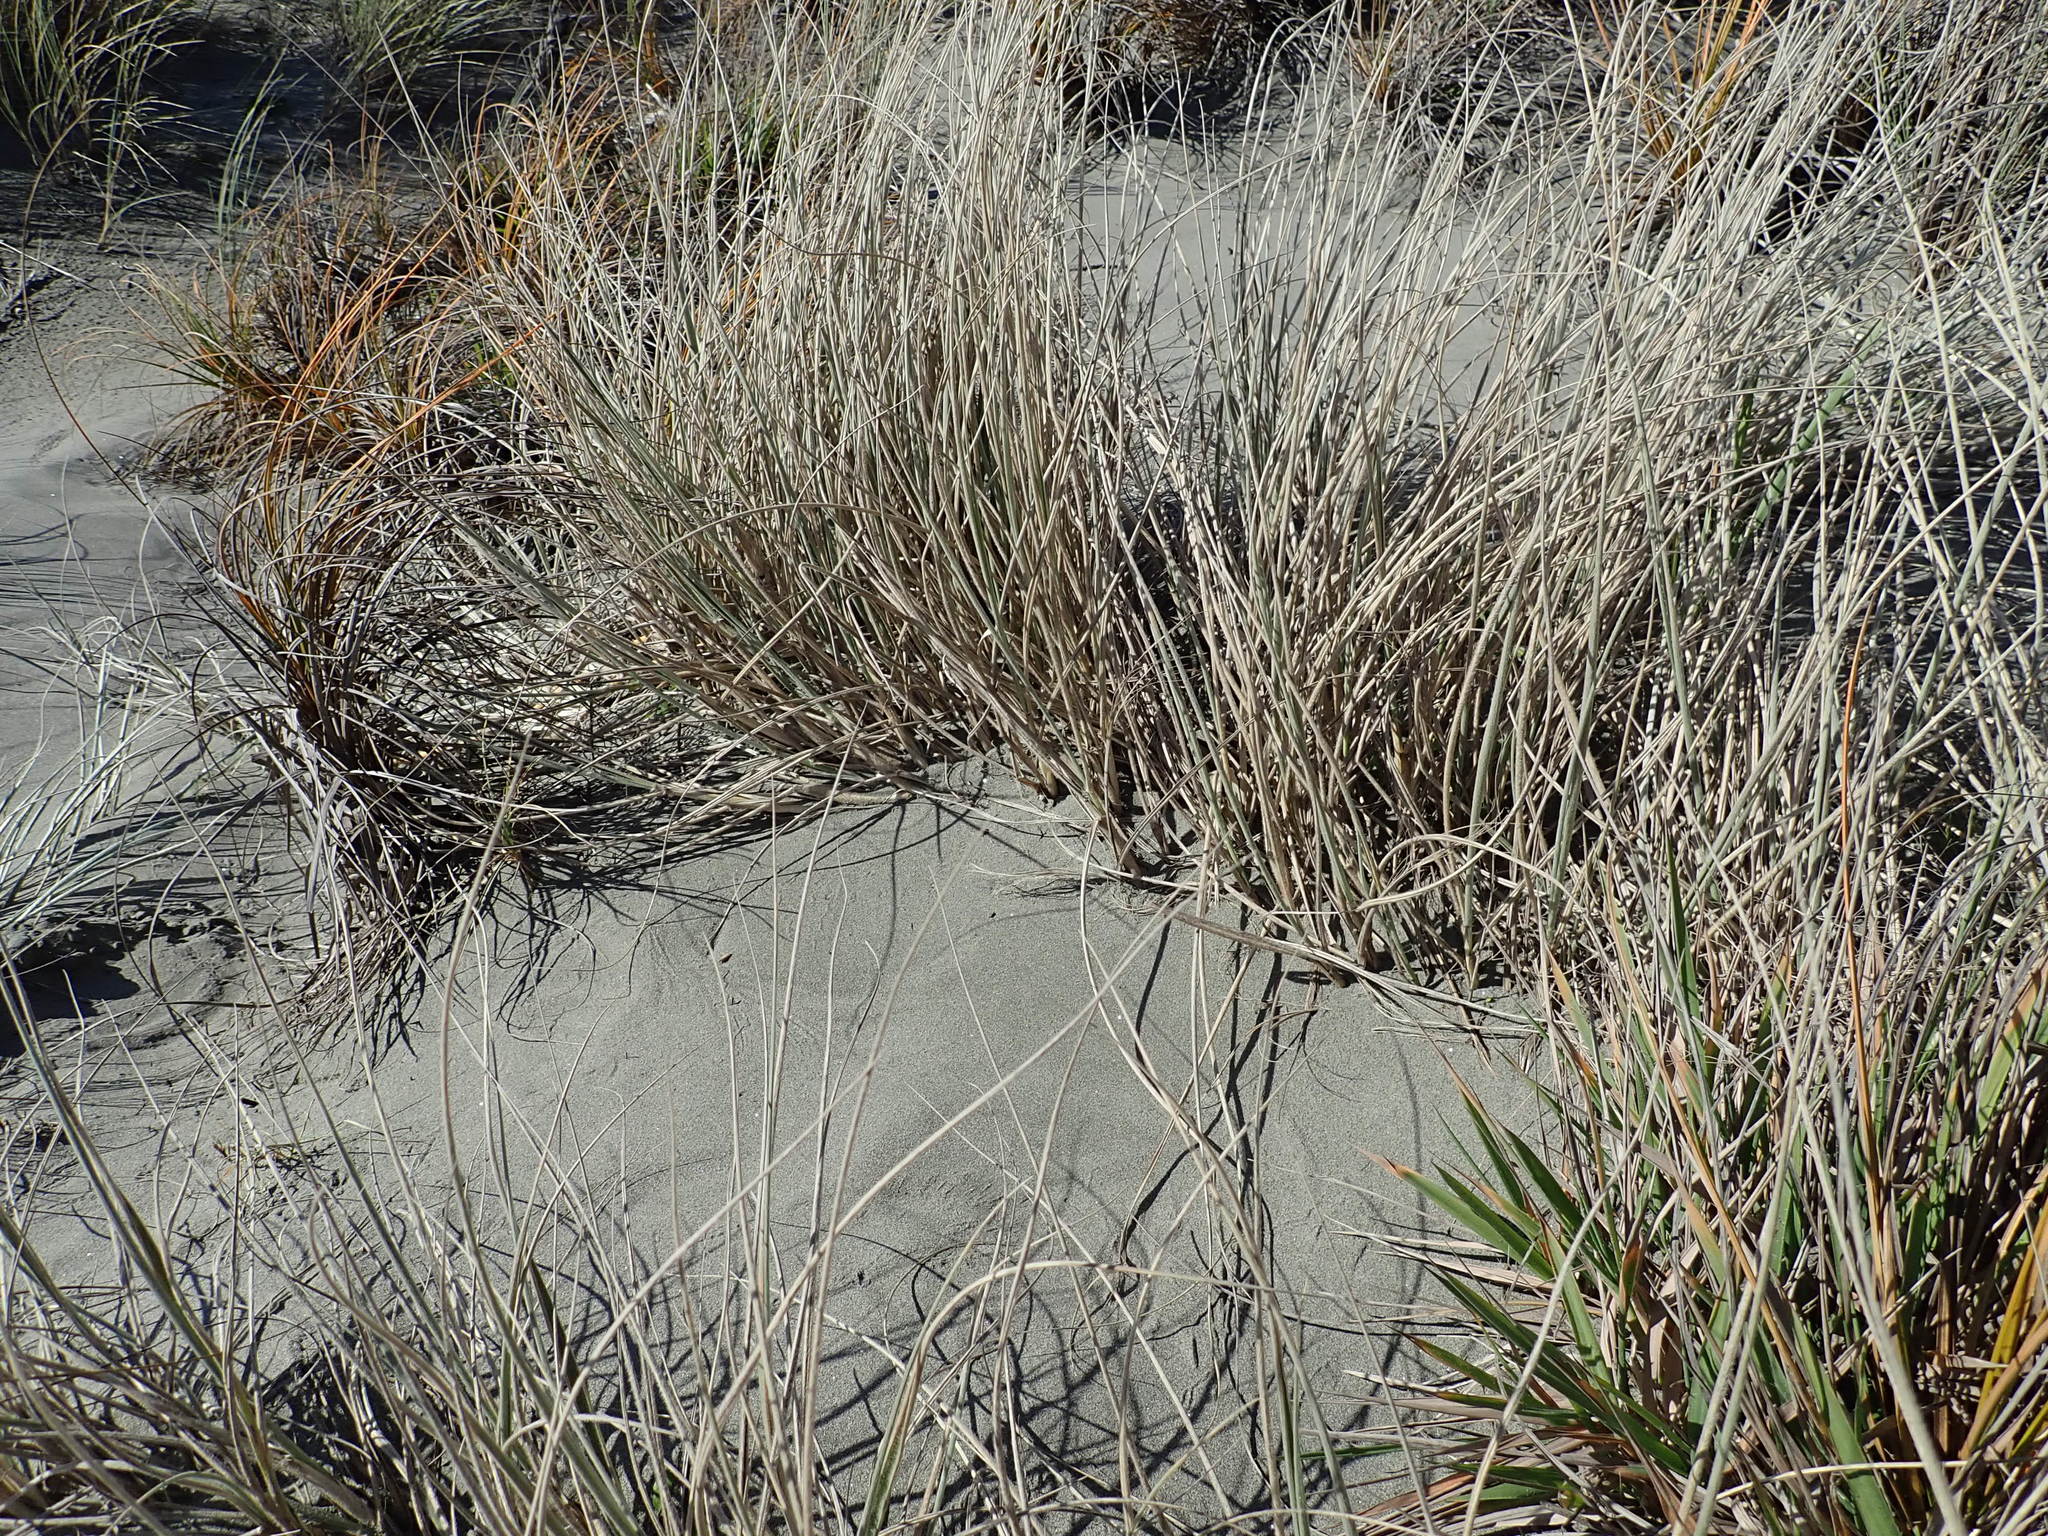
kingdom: Plantae
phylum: Tracheophyta
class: Liliopsida
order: Poales
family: Poaceae
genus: Spinifex
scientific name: Spinifex sericeus
